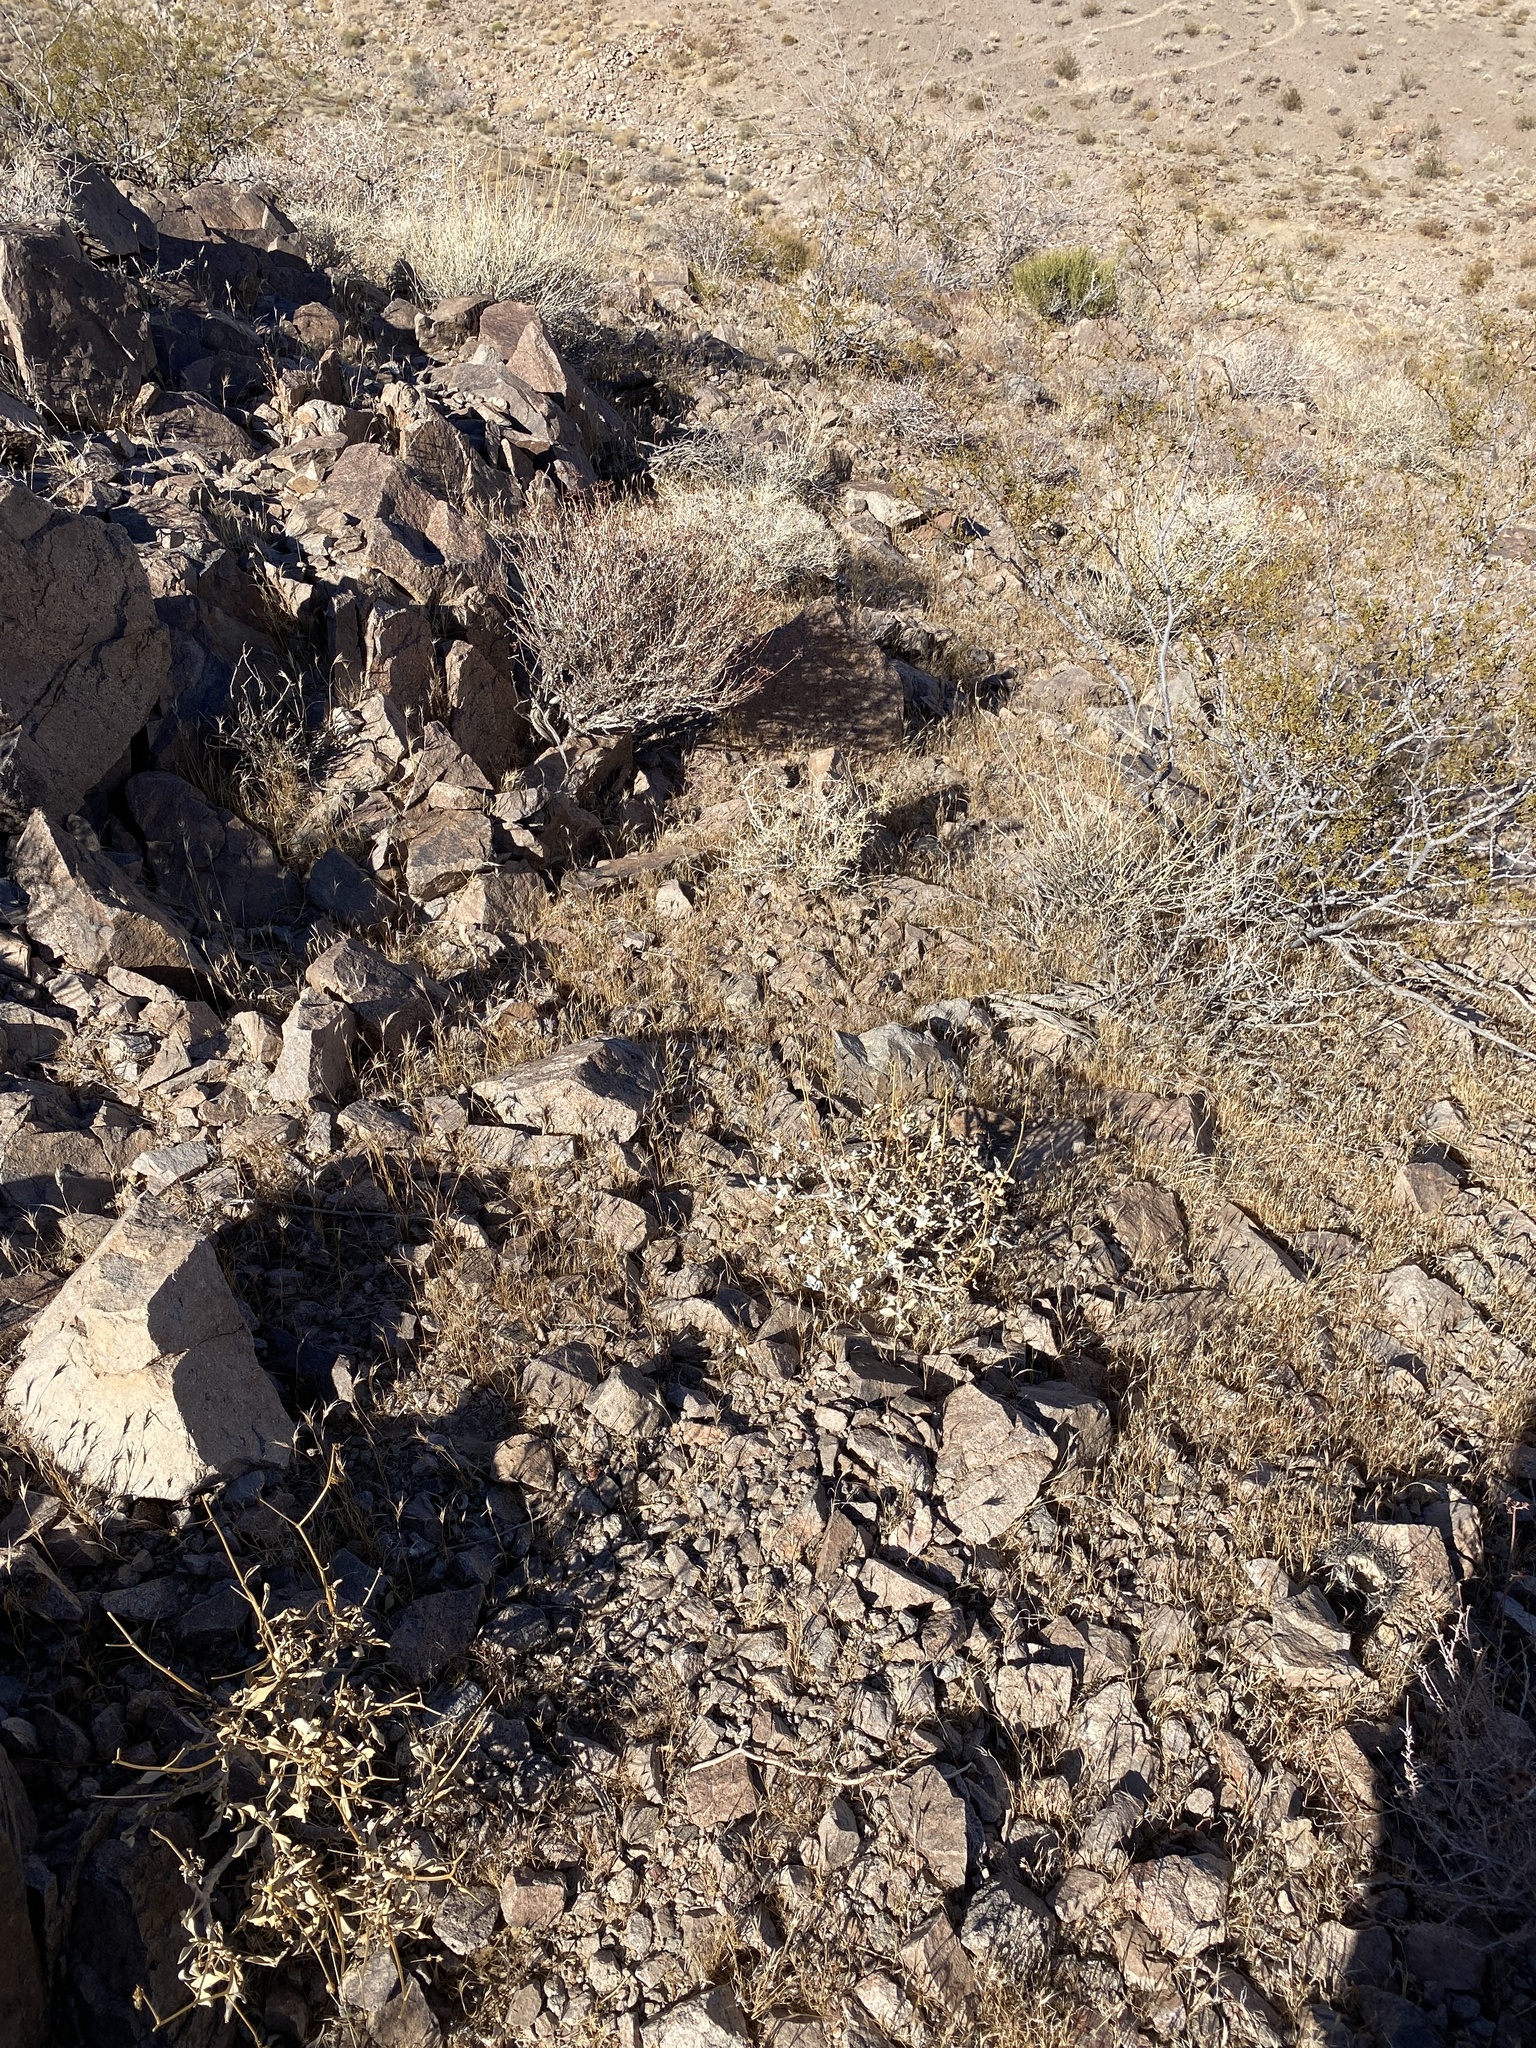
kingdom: Plantae
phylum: Tracheophyta
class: Magnoliopsida
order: Asterales
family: Asteraceae
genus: Encelia
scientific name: Encelia farinosa
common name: Brittlebush
